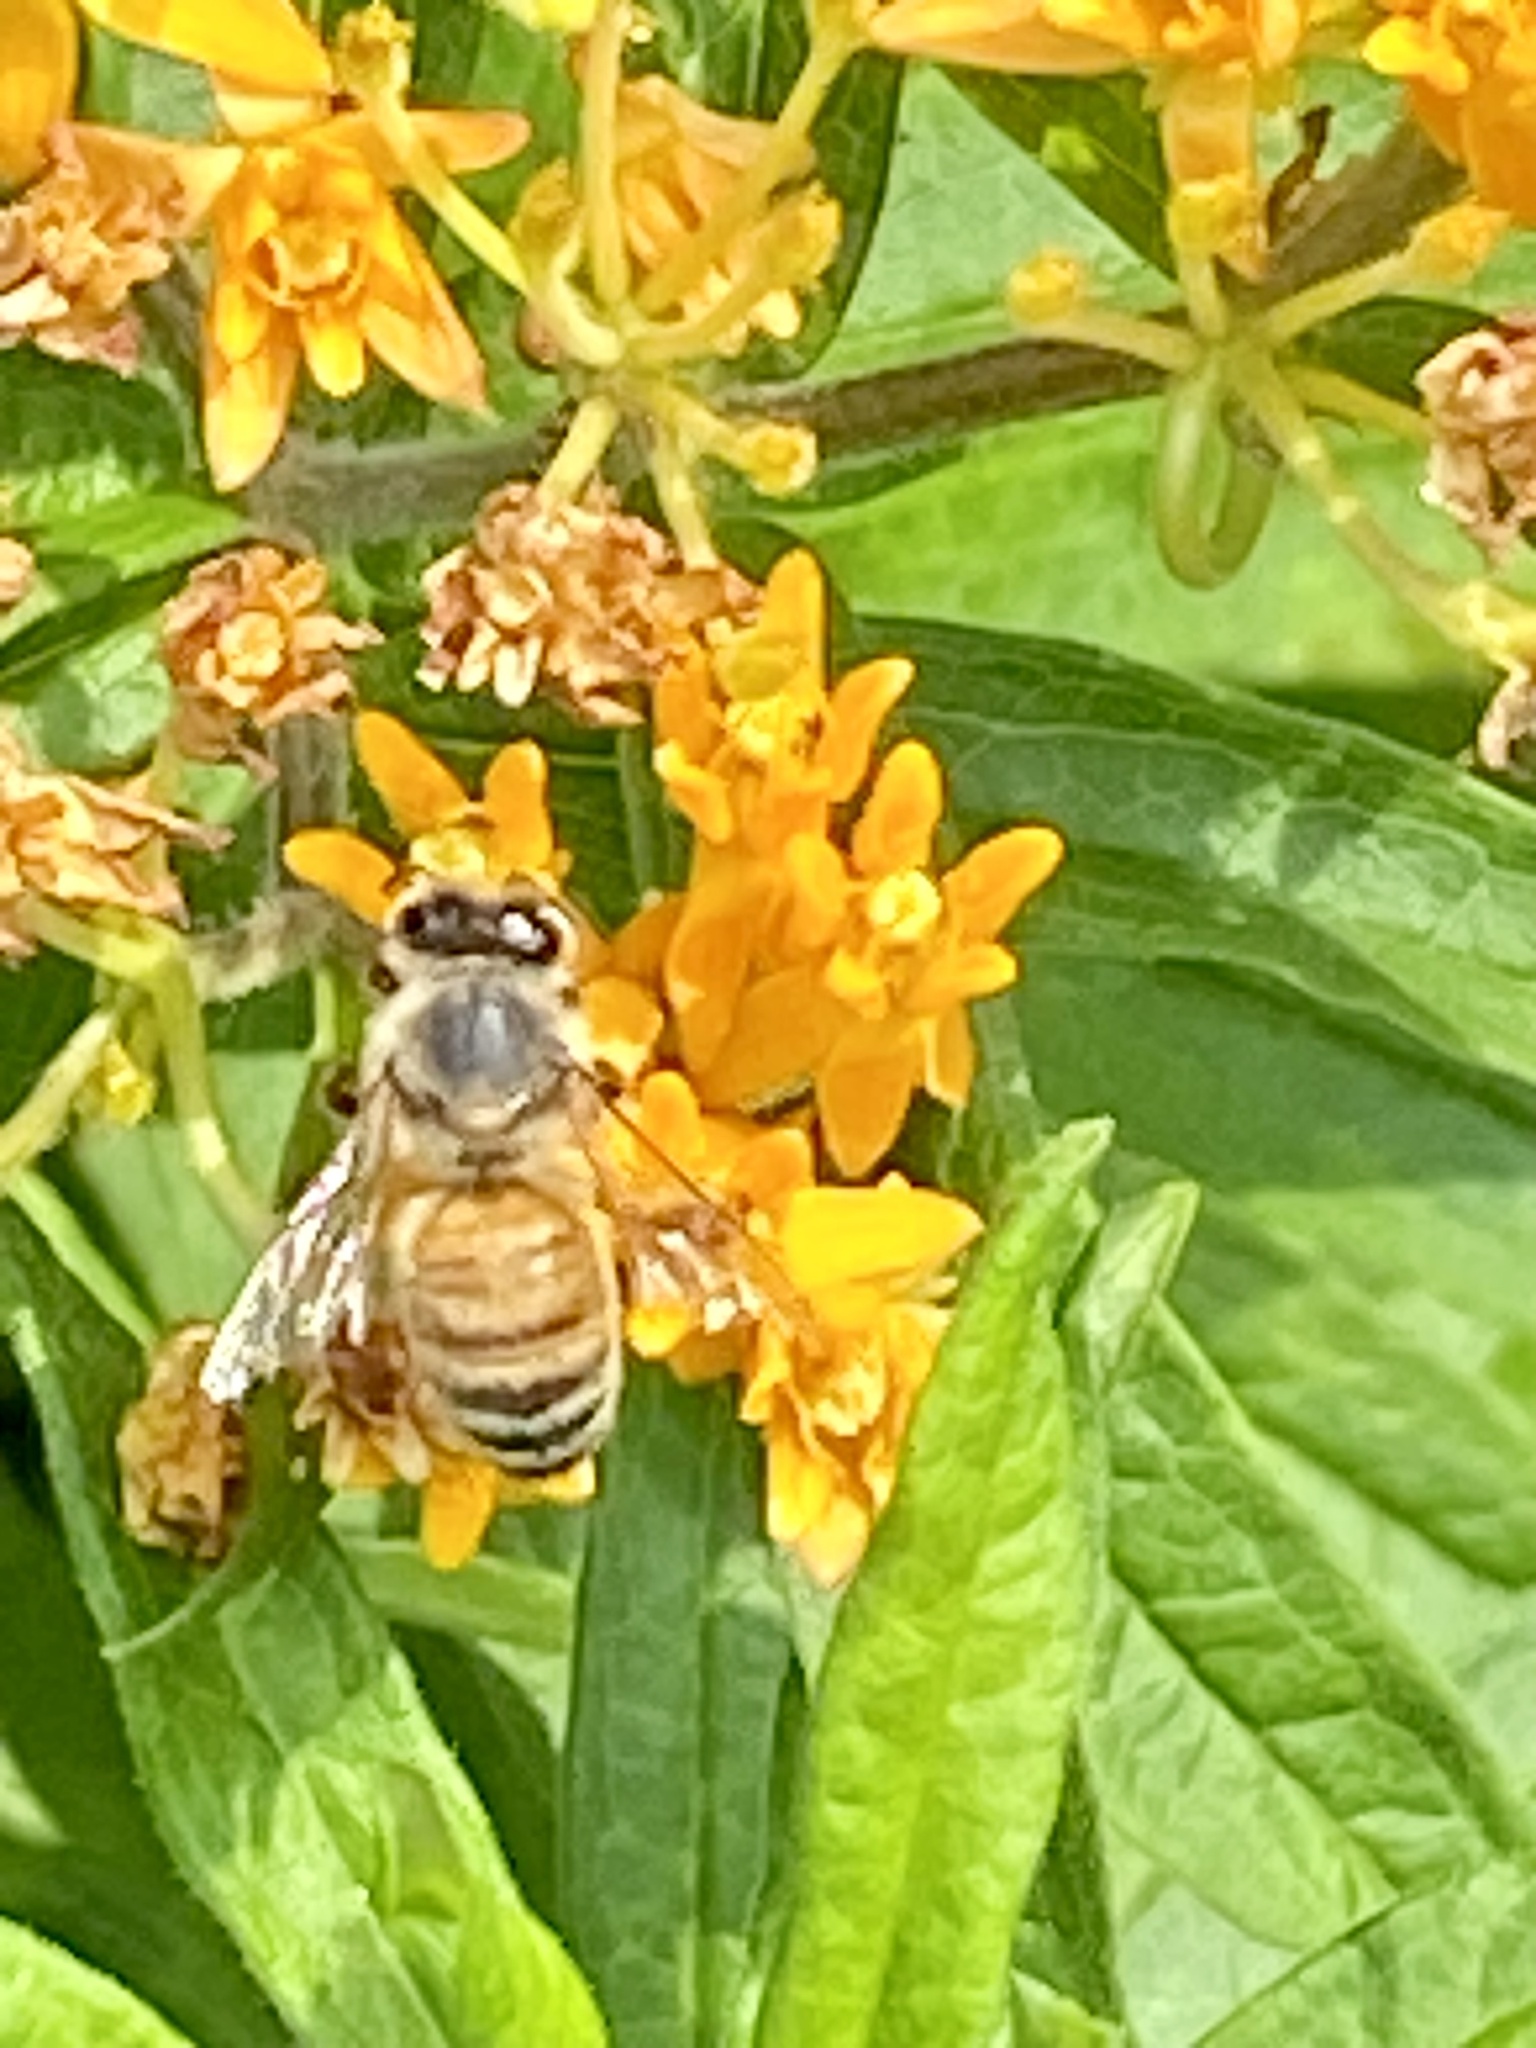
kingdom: Animalia
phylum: Arthropoda
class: Insecta
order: Hymenoptera
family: Apidae
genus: Apis
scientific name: Apis mellifera
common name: Honey bee
